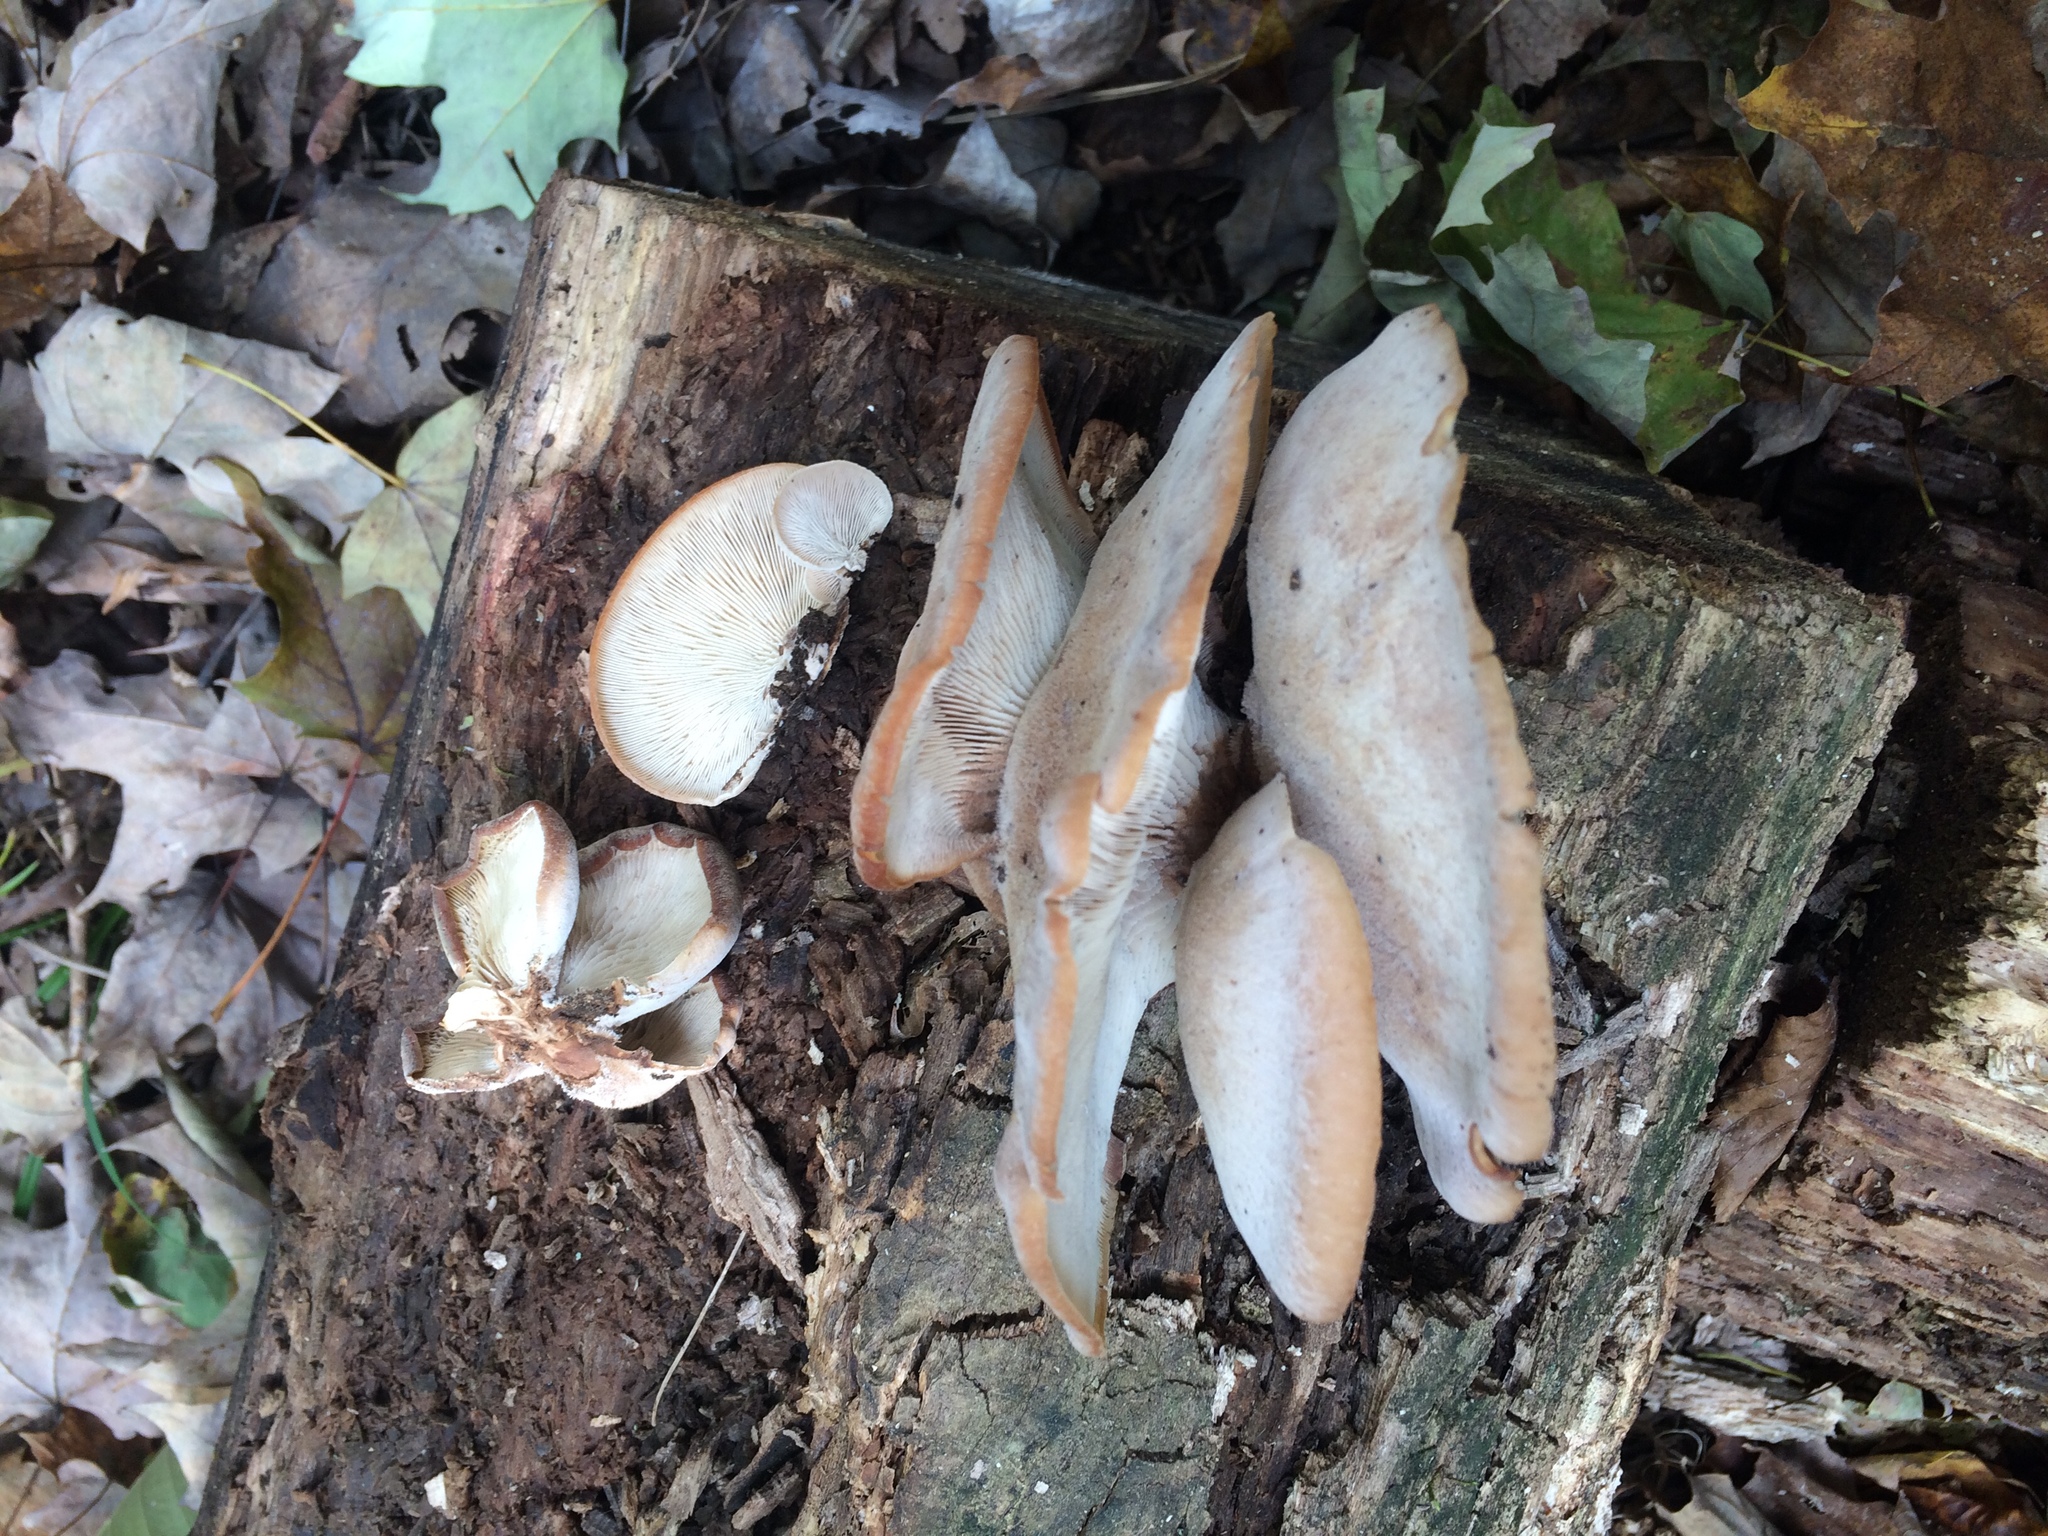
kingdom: Fungi
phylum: Basidiomycota
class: Agaricomycetes
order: Russulales
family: Auriscalpiaceae
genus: Lentinellus
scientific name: Lentinellus ursinus
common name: Bear lentinus
